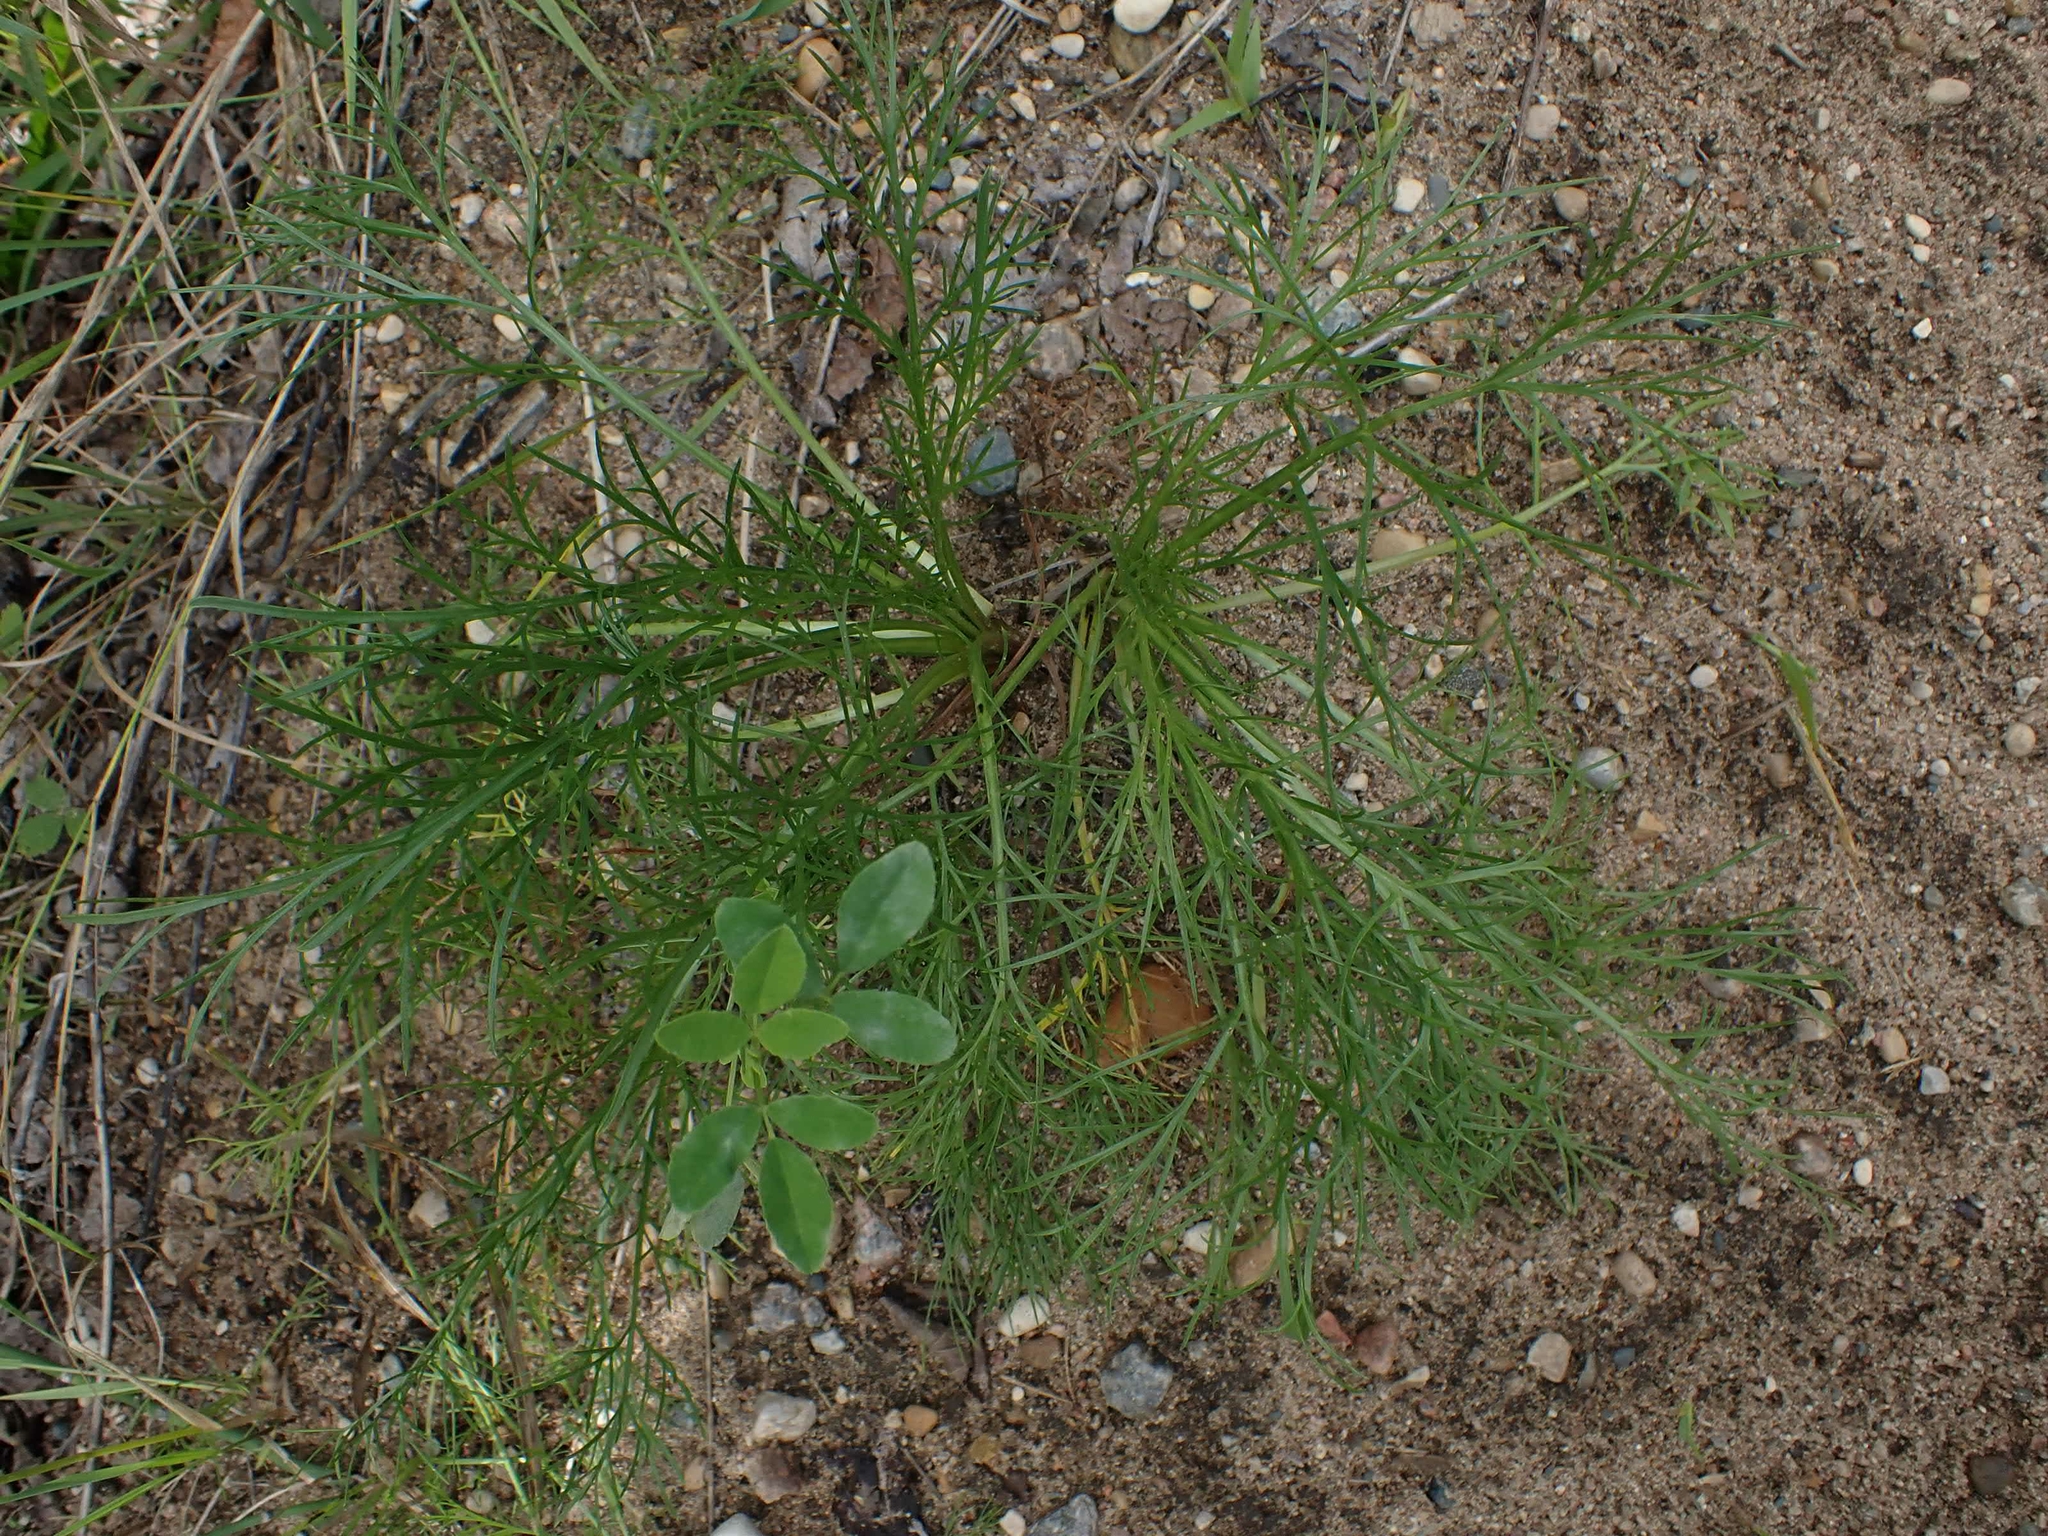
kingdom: Plantae
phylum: Tracheophyta
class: Magnoliopsida
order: Asterales
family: Asteraceae
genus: Artemisia
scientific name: Artemisia campestris
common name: Field wormwood
